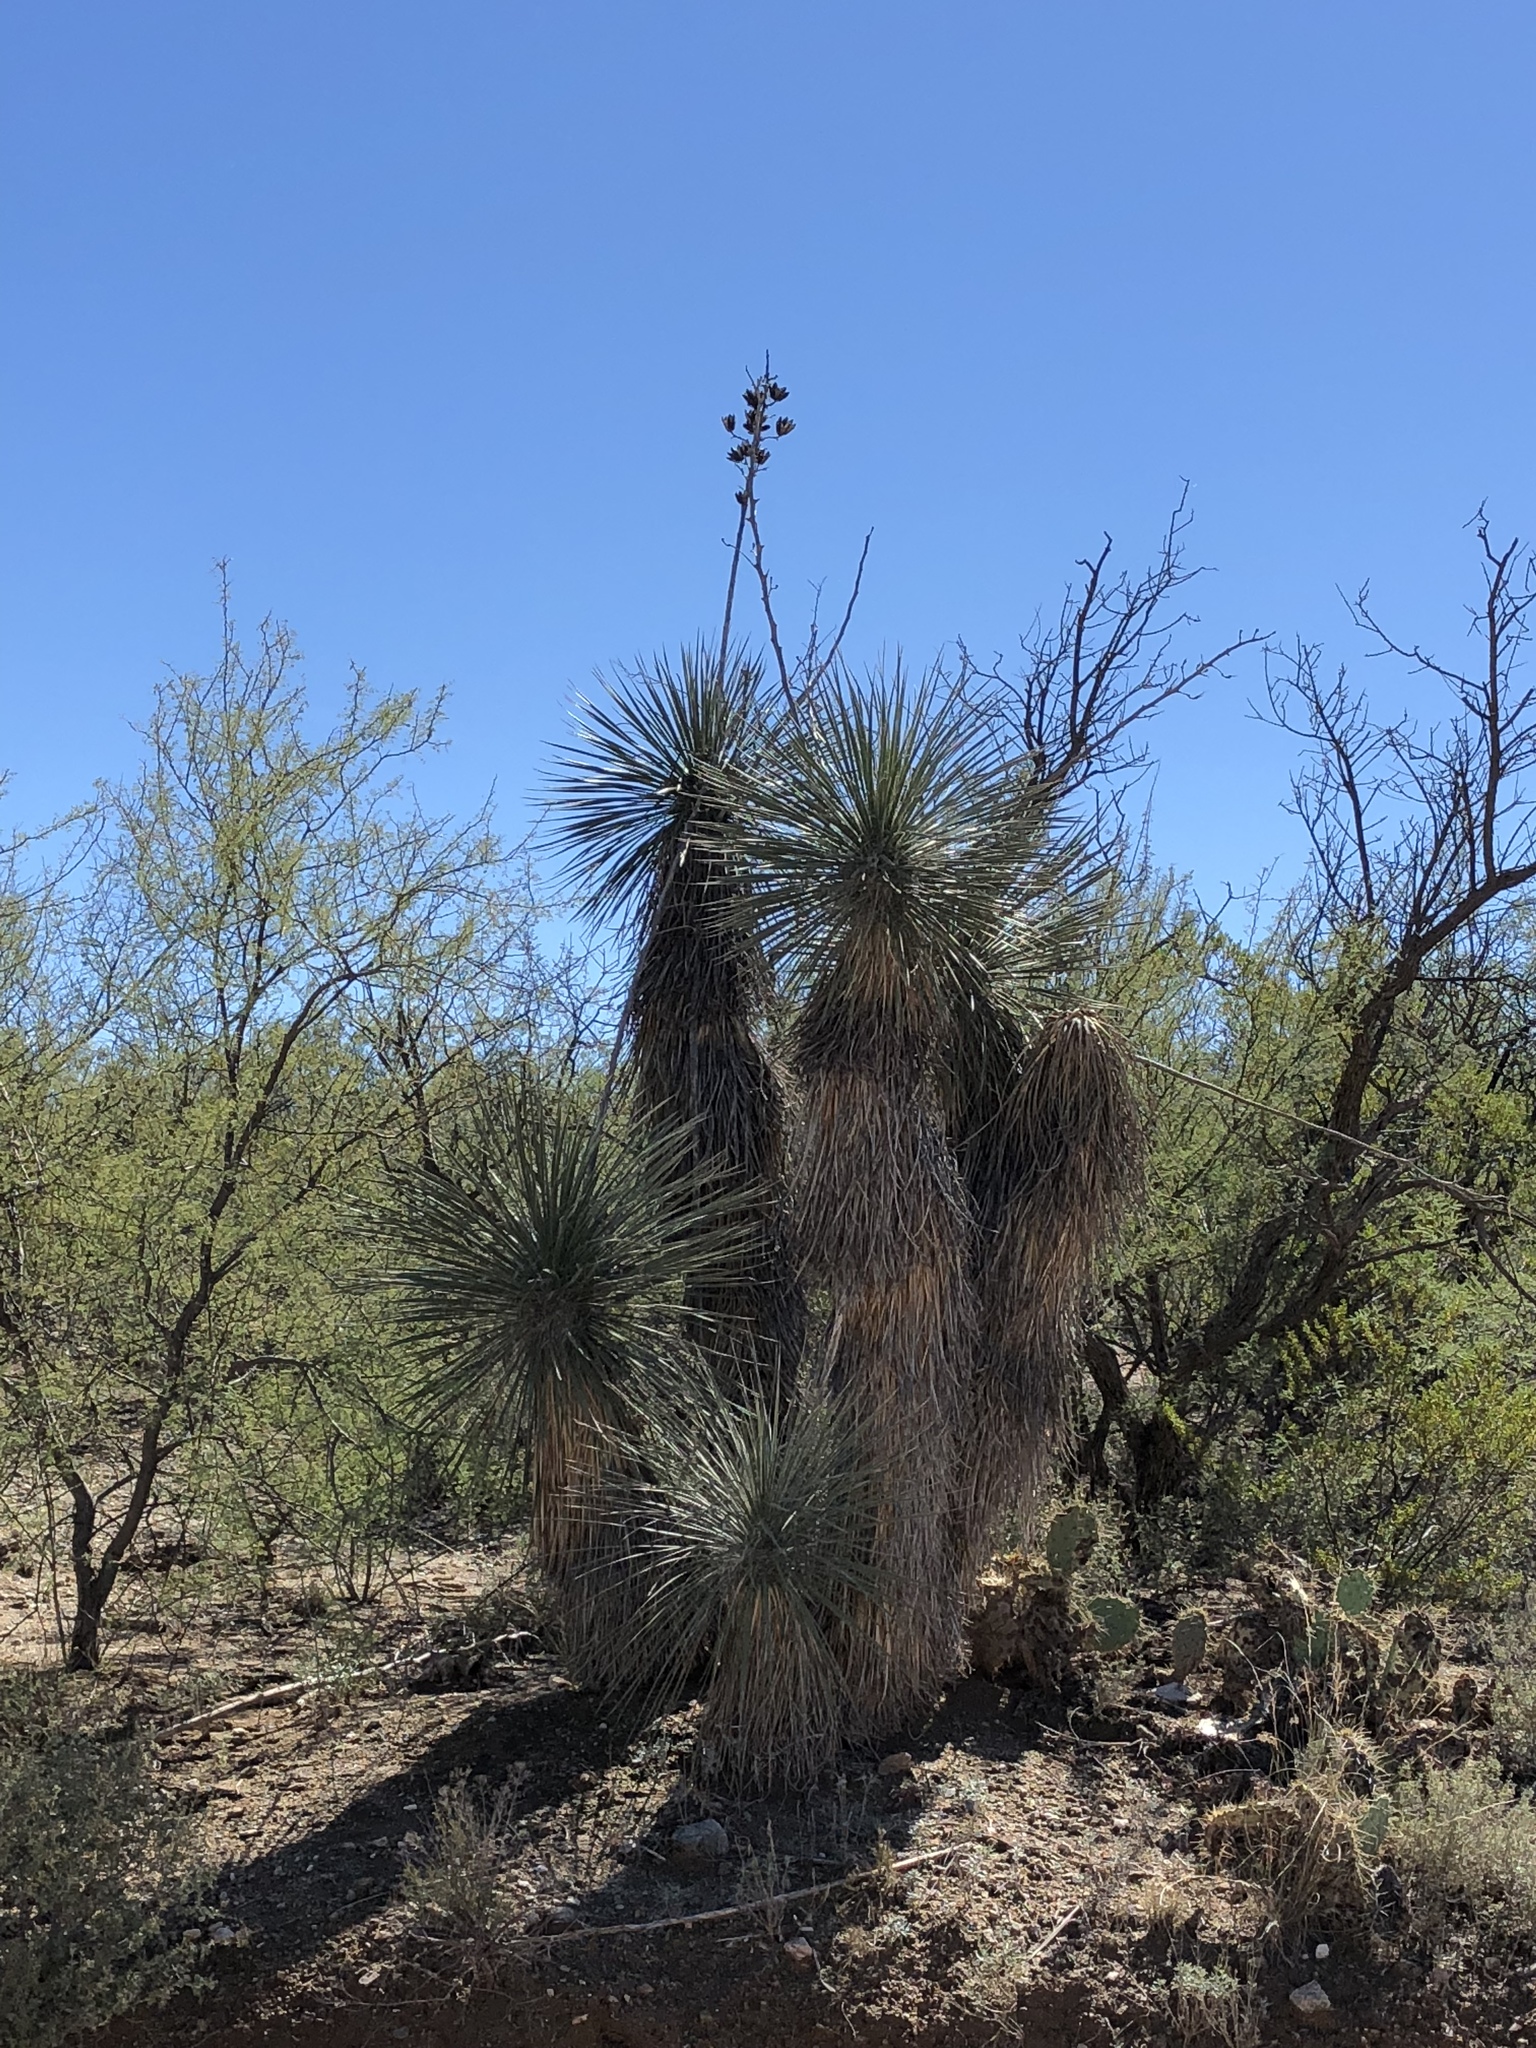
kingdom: Plantae
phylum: Tracheophyta
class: Liliopsida
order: Asparagales
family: Asparagaceae
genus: Yucca
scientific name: Yucca elata
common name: Palmella
